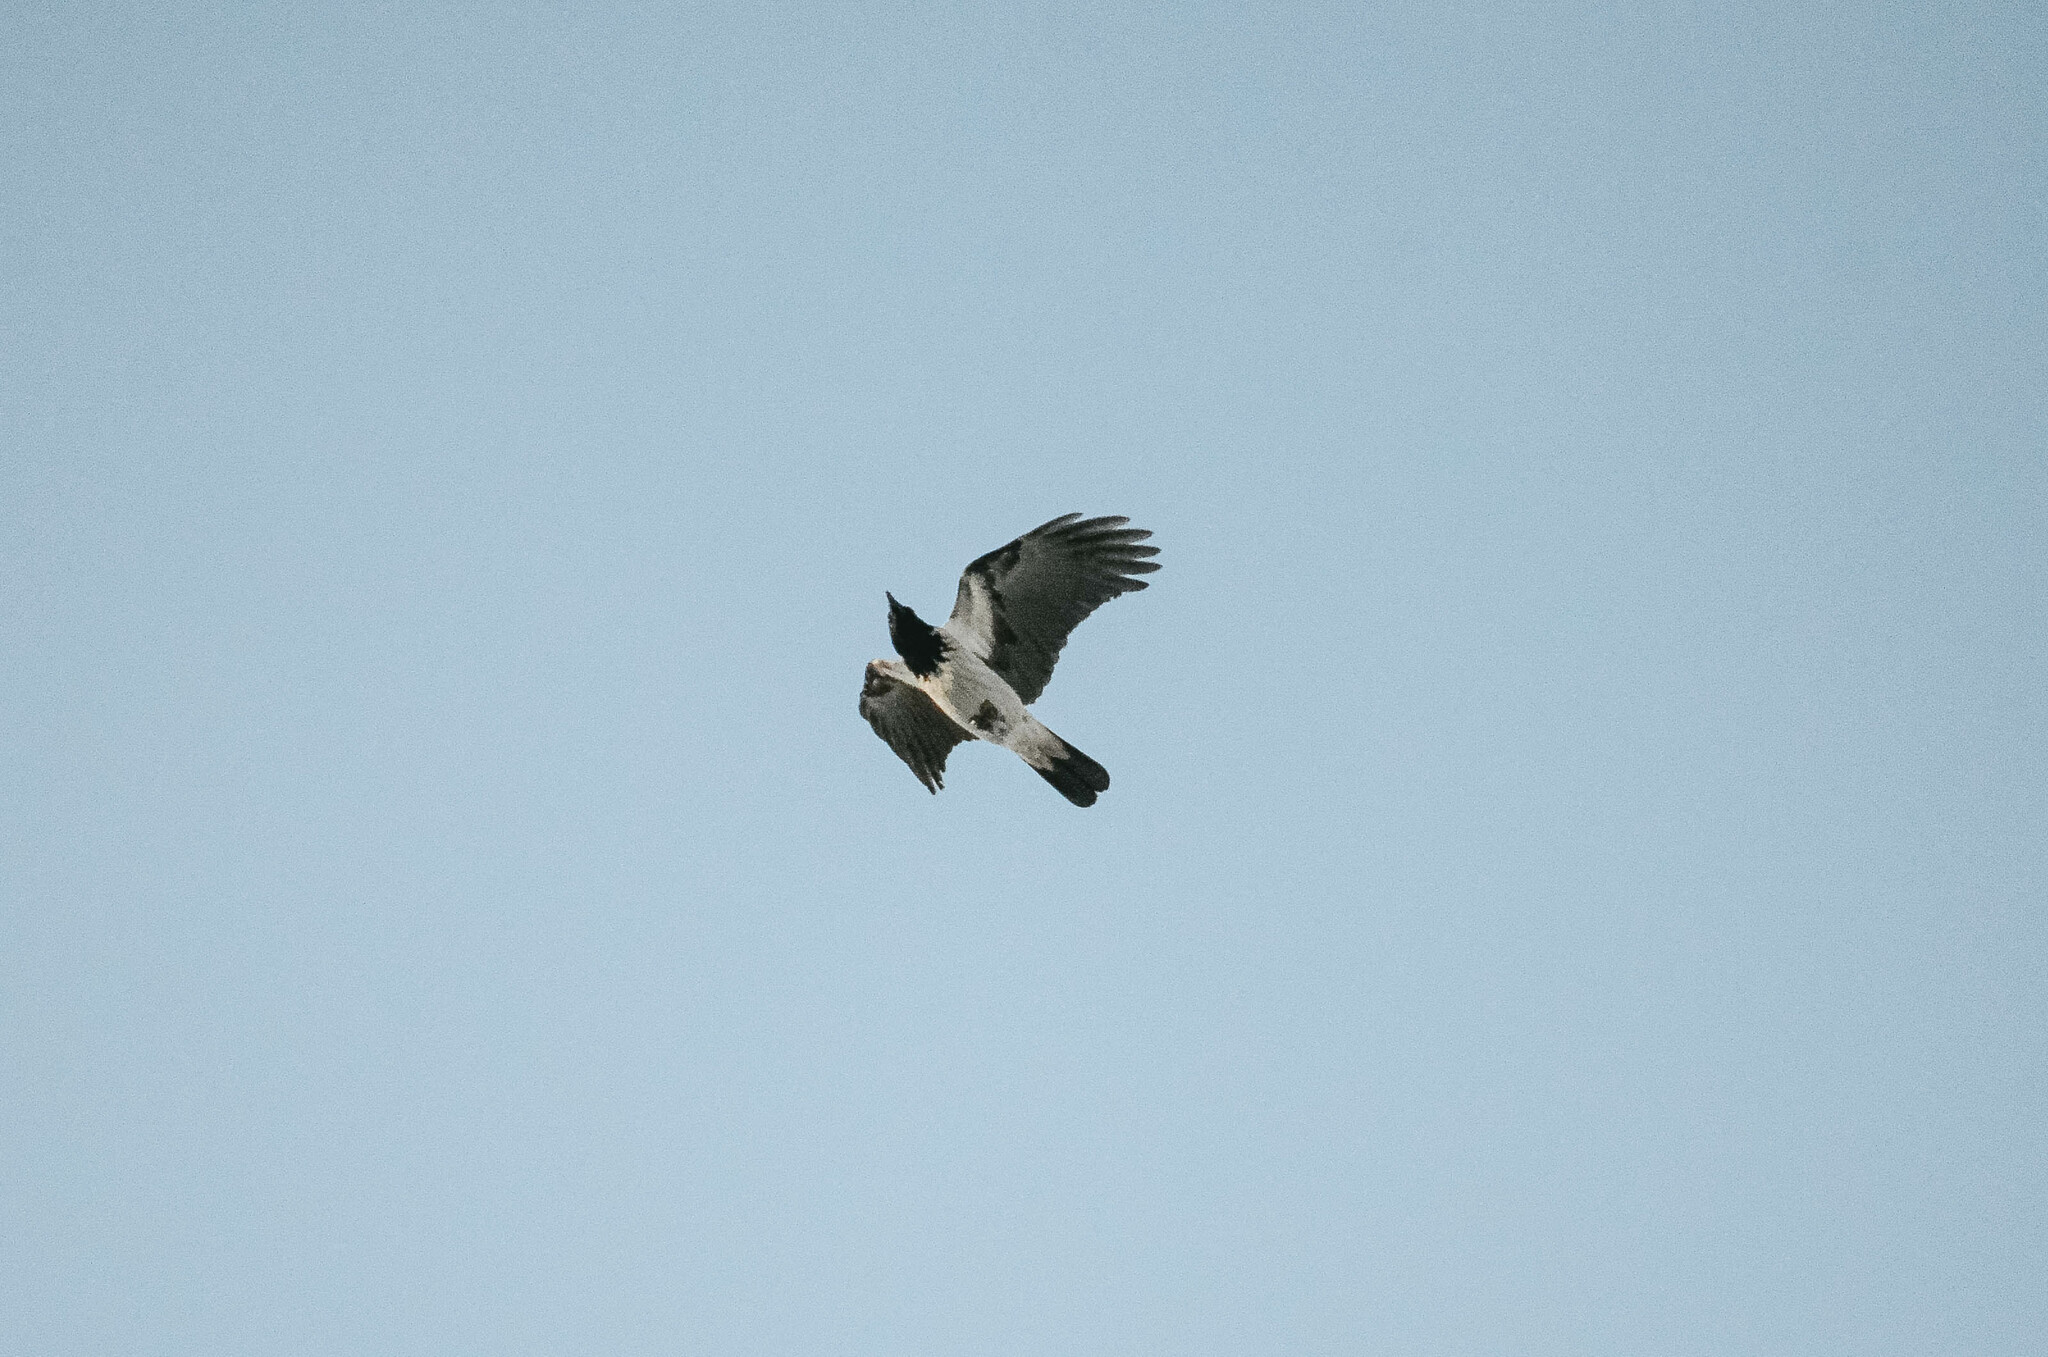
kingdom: Animalia
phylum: Chordata
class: Aves
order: Passeriformes
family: Corvidae
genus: Corvus
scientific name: Corvus cornix
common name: Hooded crow
